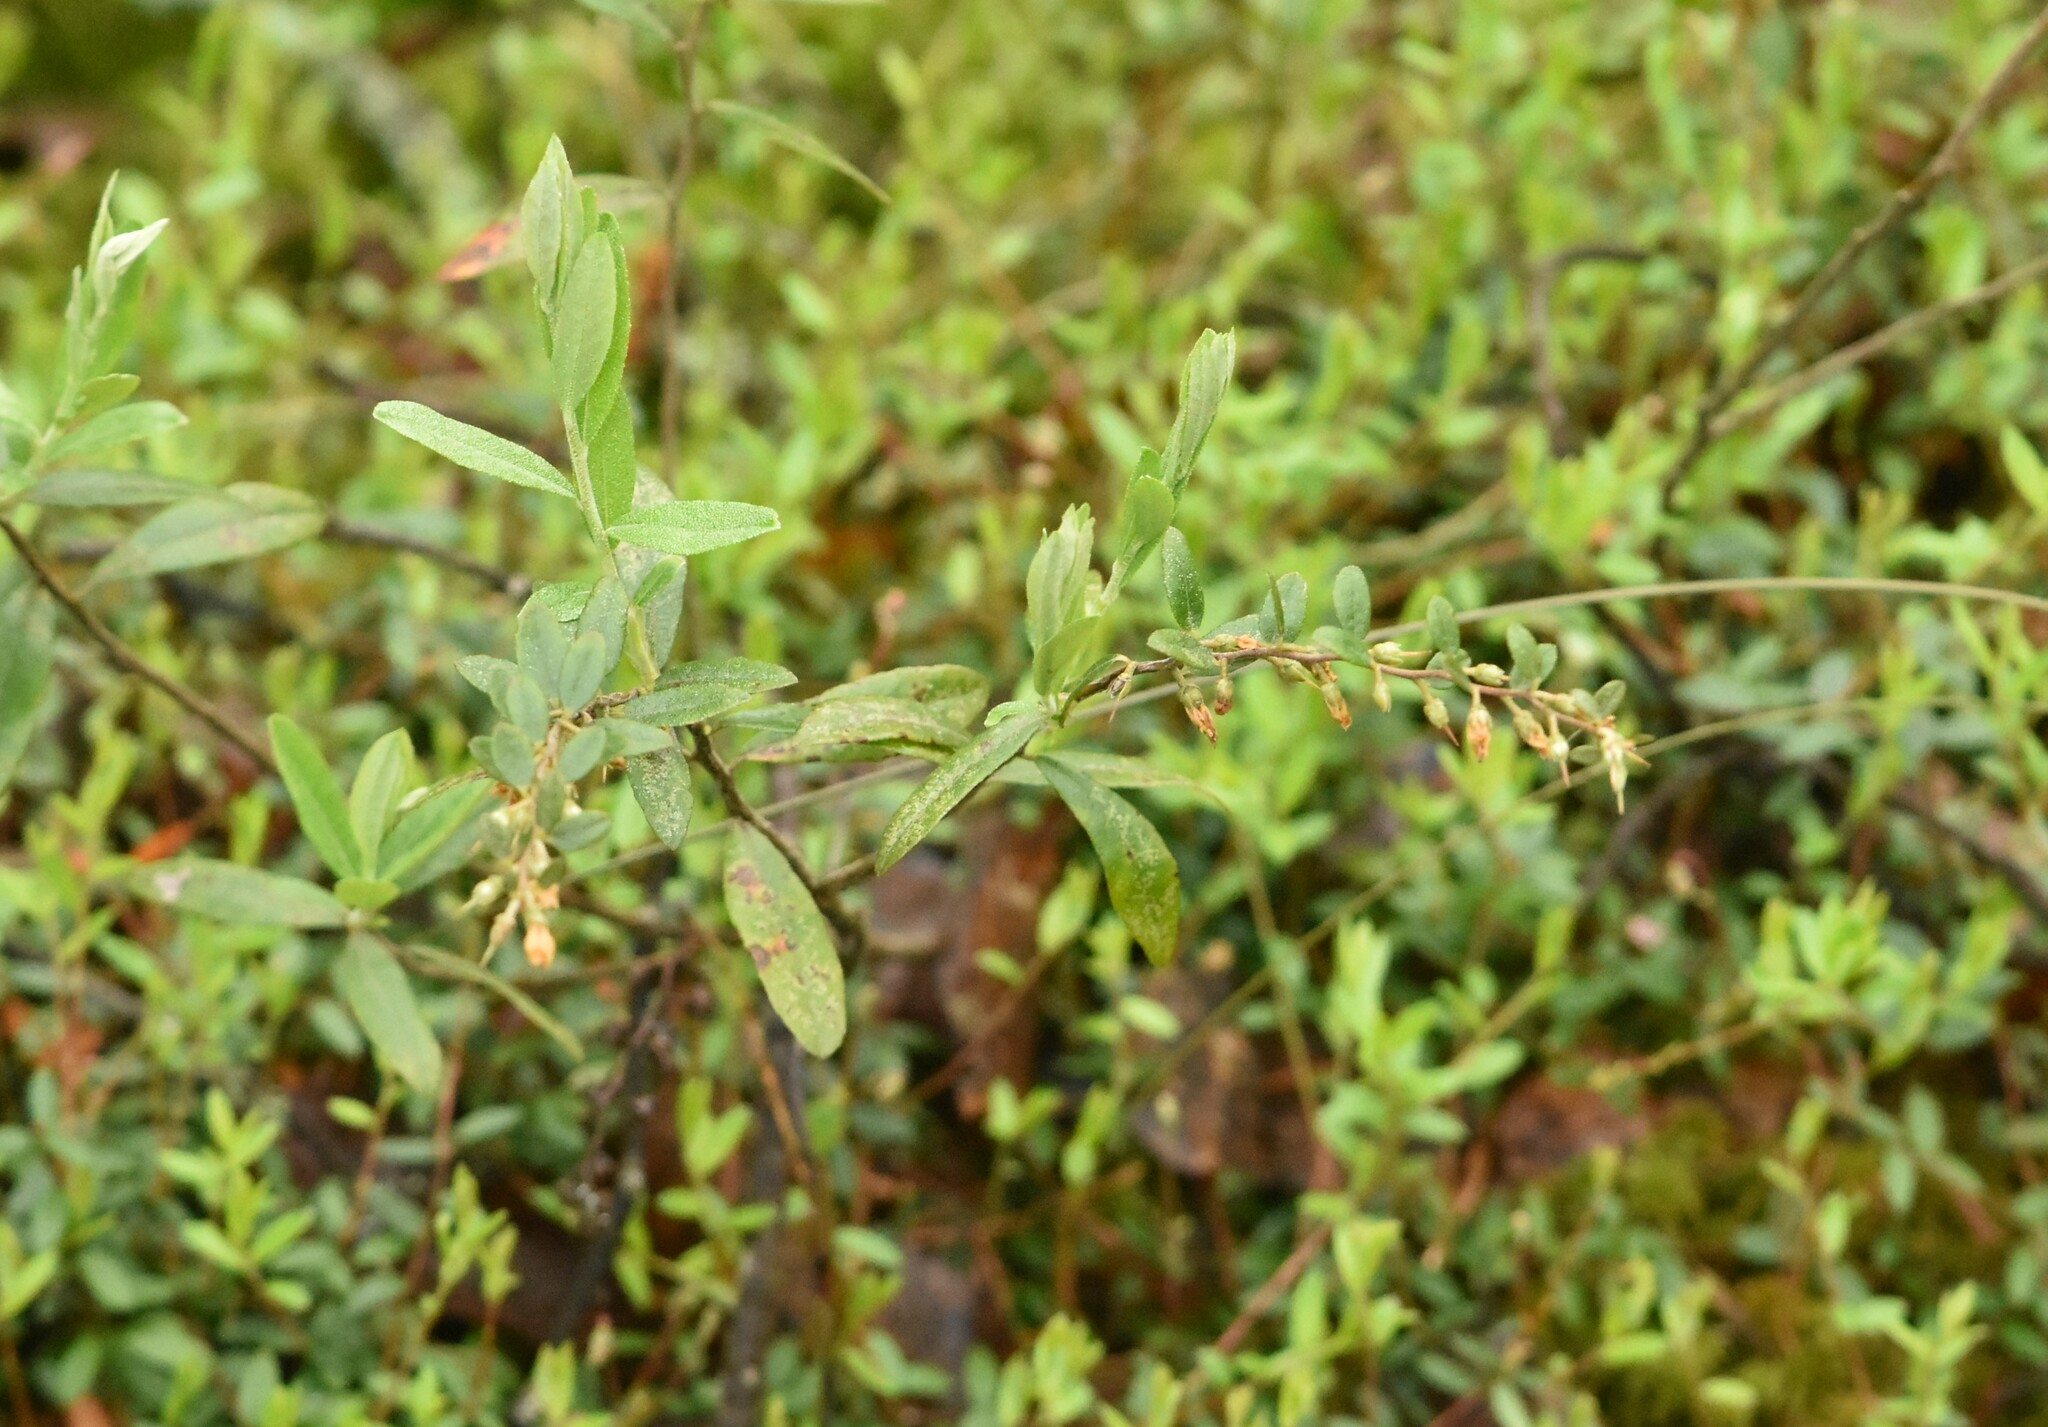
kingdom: Plantae
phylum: Tracheophyta
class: Magnoliopsida
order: Ericales
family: Ericaceae
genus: Chamaedaphne
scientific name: Chamaedaphne calyculata
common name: Leatherleaf
